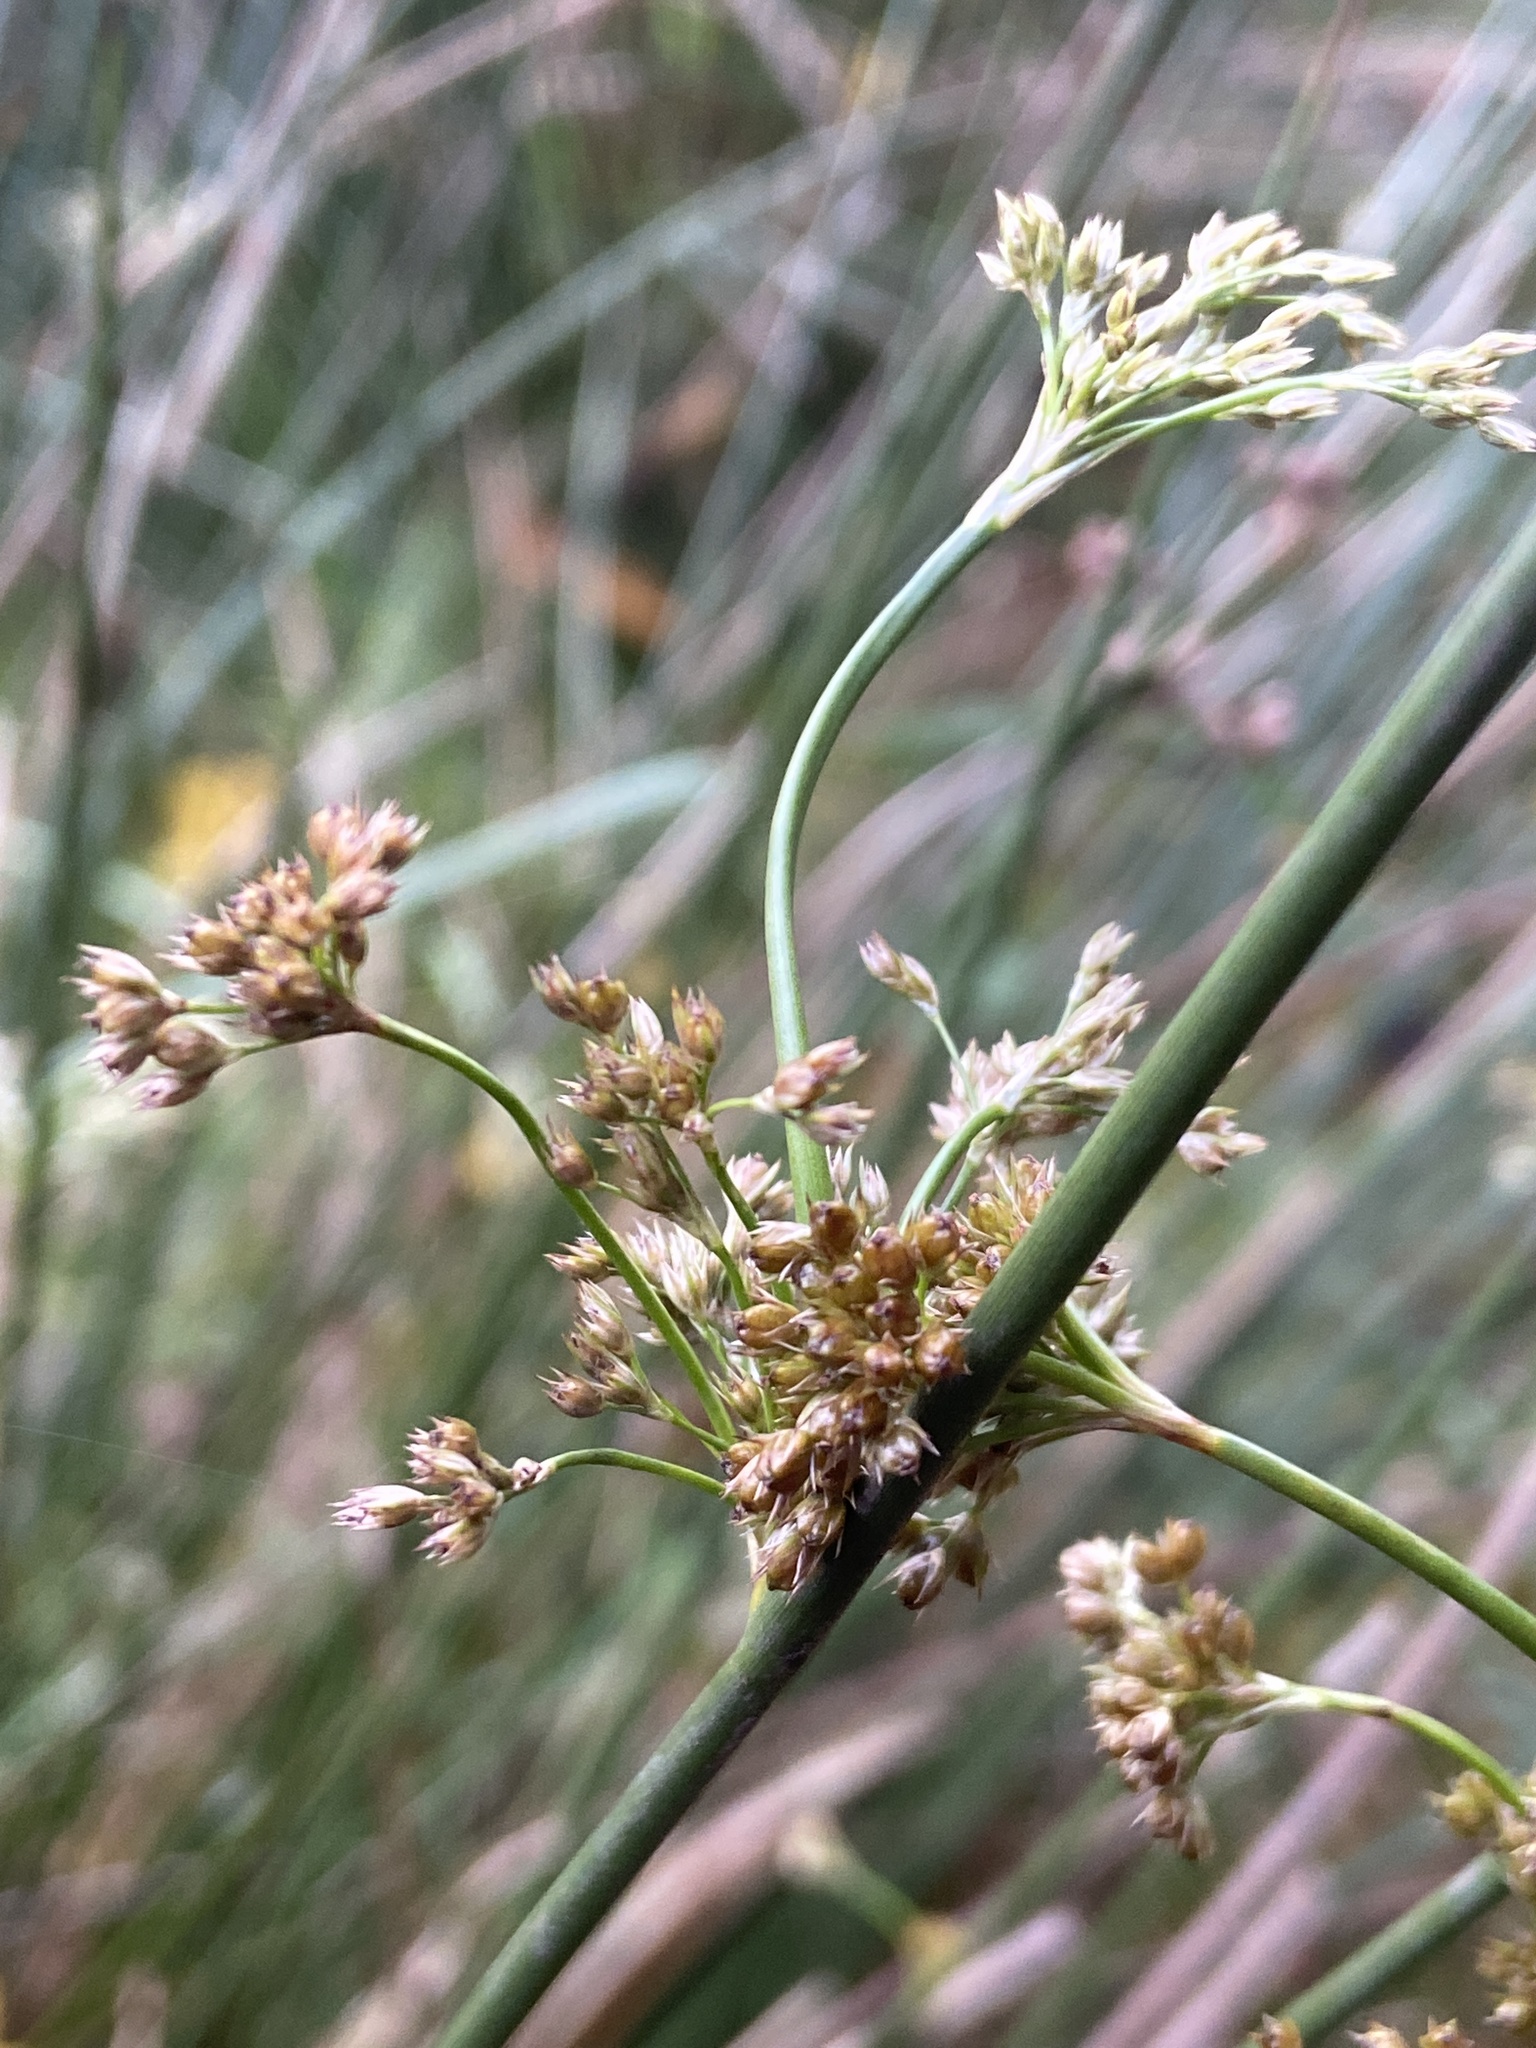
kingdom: Plantae
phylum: Tracheophyta
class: Liliopsida
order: Poales
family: Juncaceae
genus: Juncus
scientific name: Juncus effusus
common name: Soft rush
